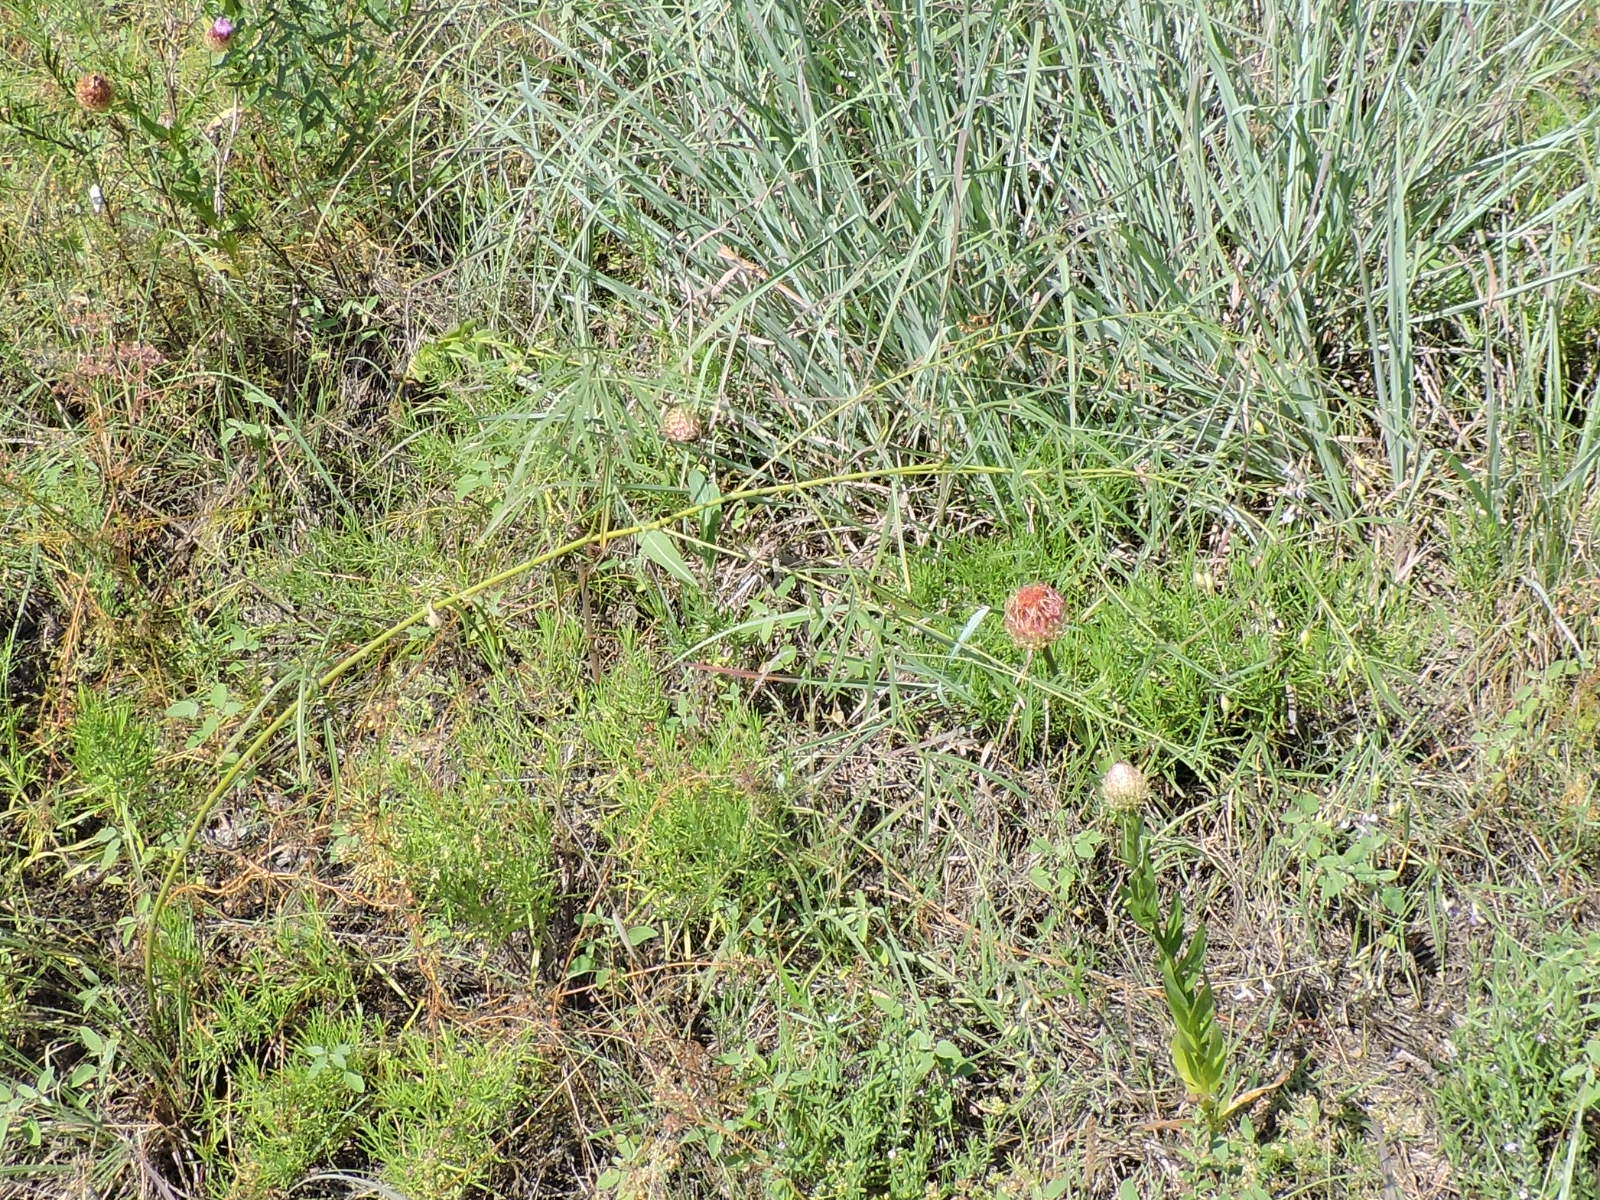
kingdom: Plantae
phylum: Tracheophyta
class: Magnoliopsida
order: Fabales
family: Fabaceae
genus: Pediomelum
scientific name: Pediomelum linearifolium
